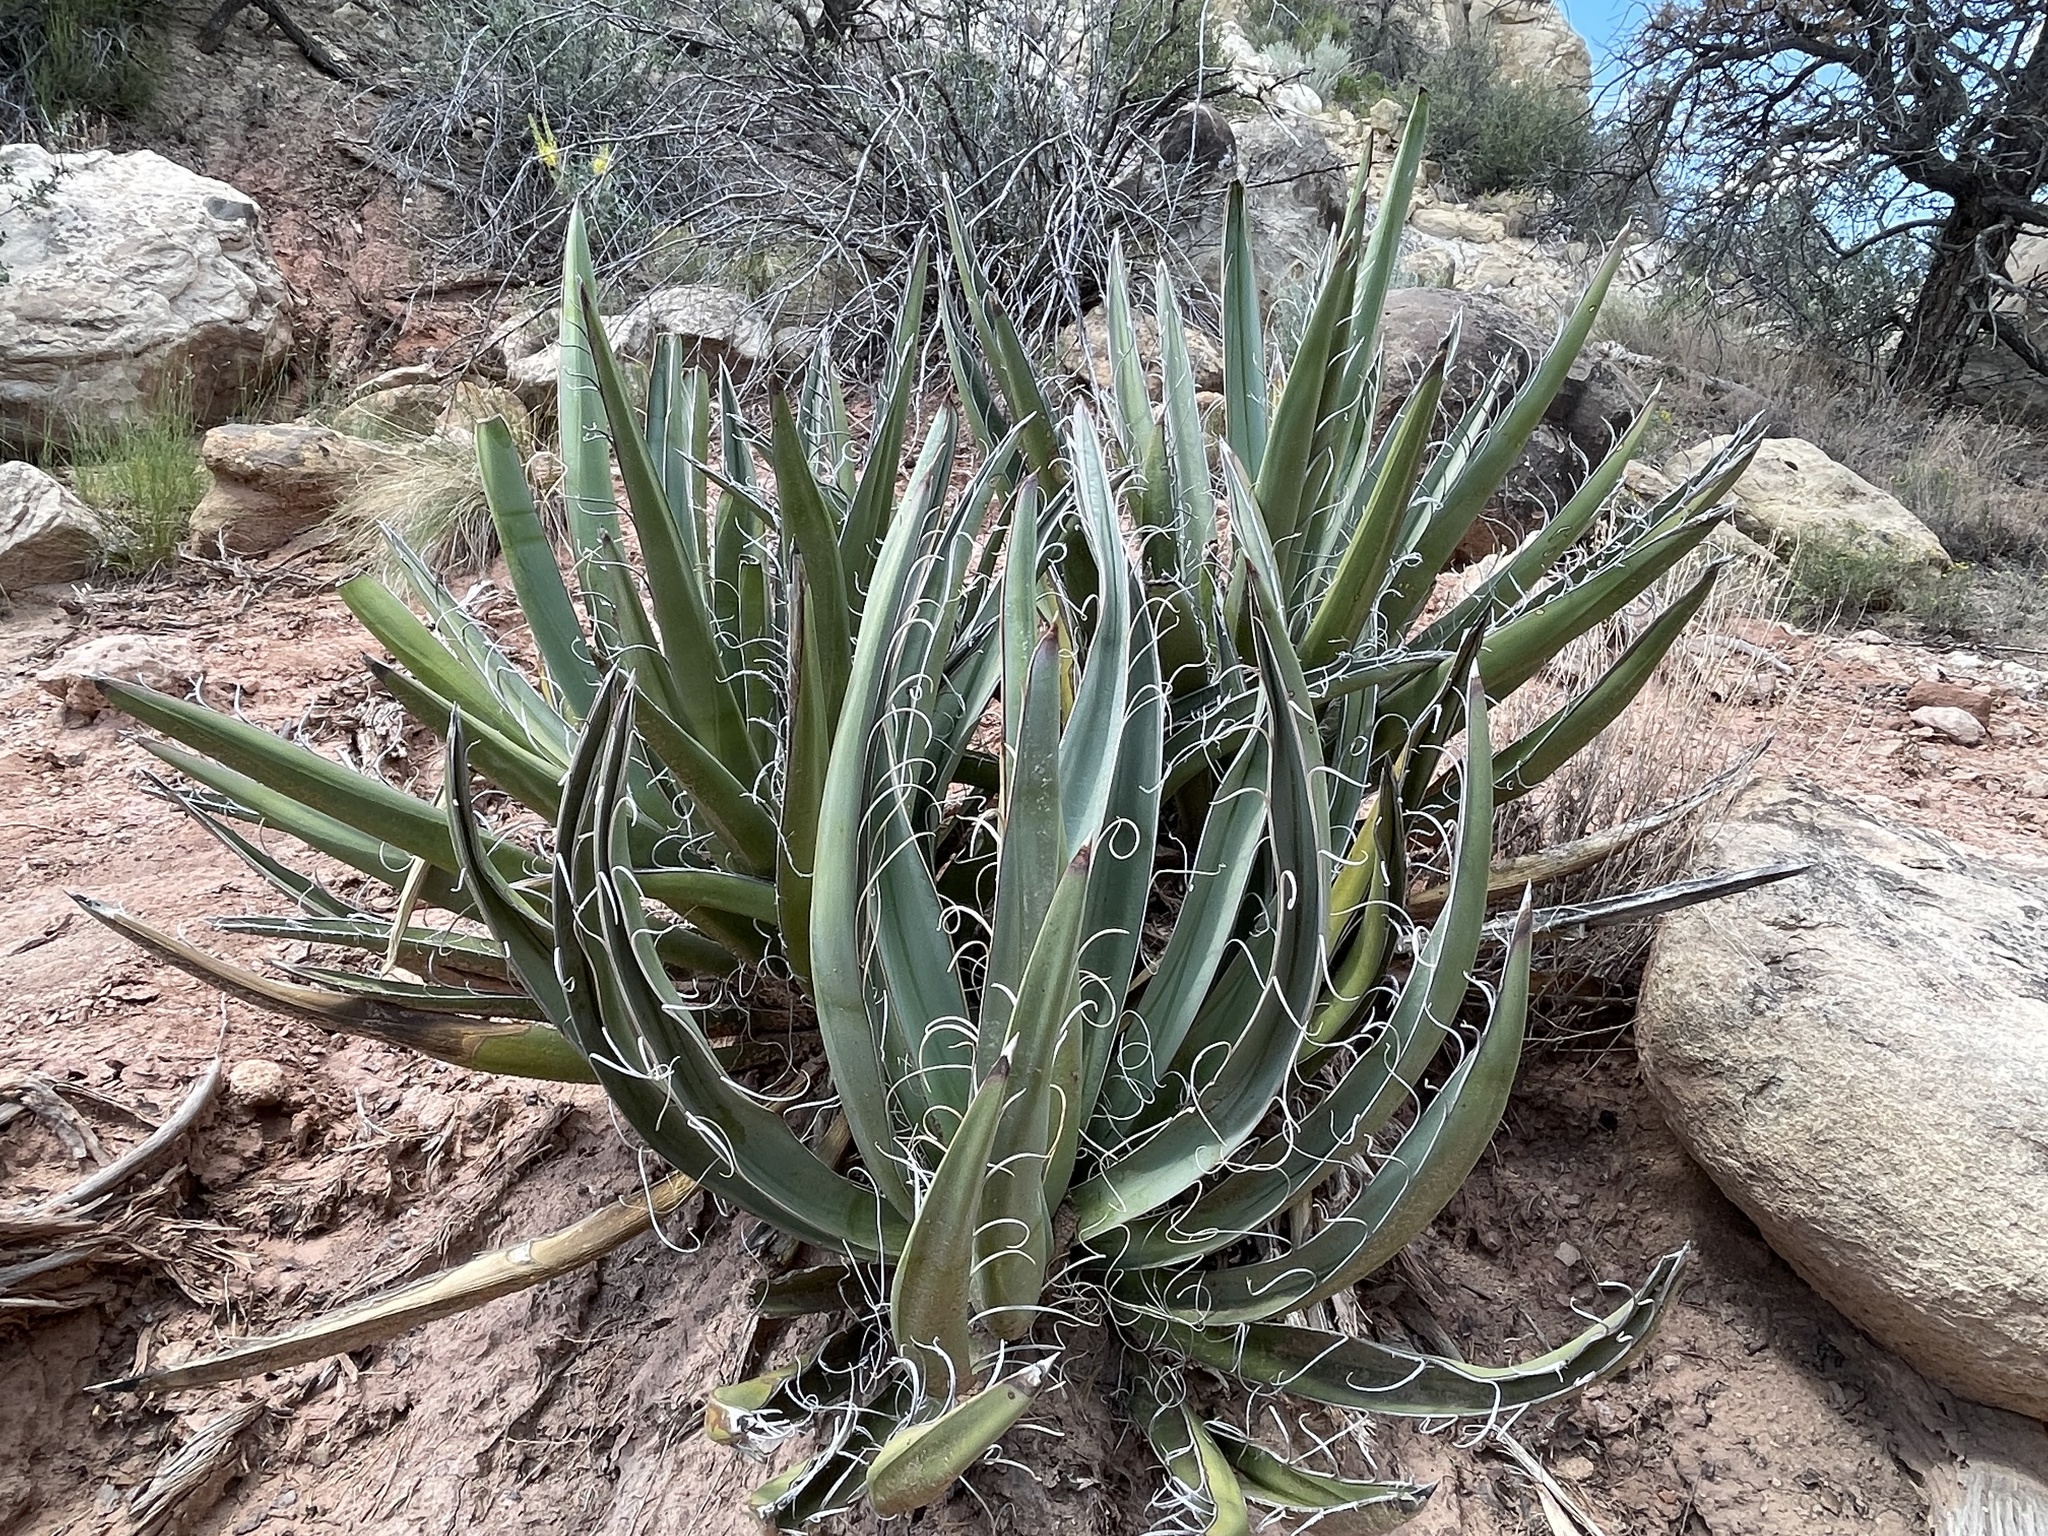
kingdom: Plantae
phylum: Tracheophyta
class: Liliopsida
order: Asparagales
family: Asparagaceae
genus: Yucca
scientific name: Yucca baccata
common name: Banana yucca
